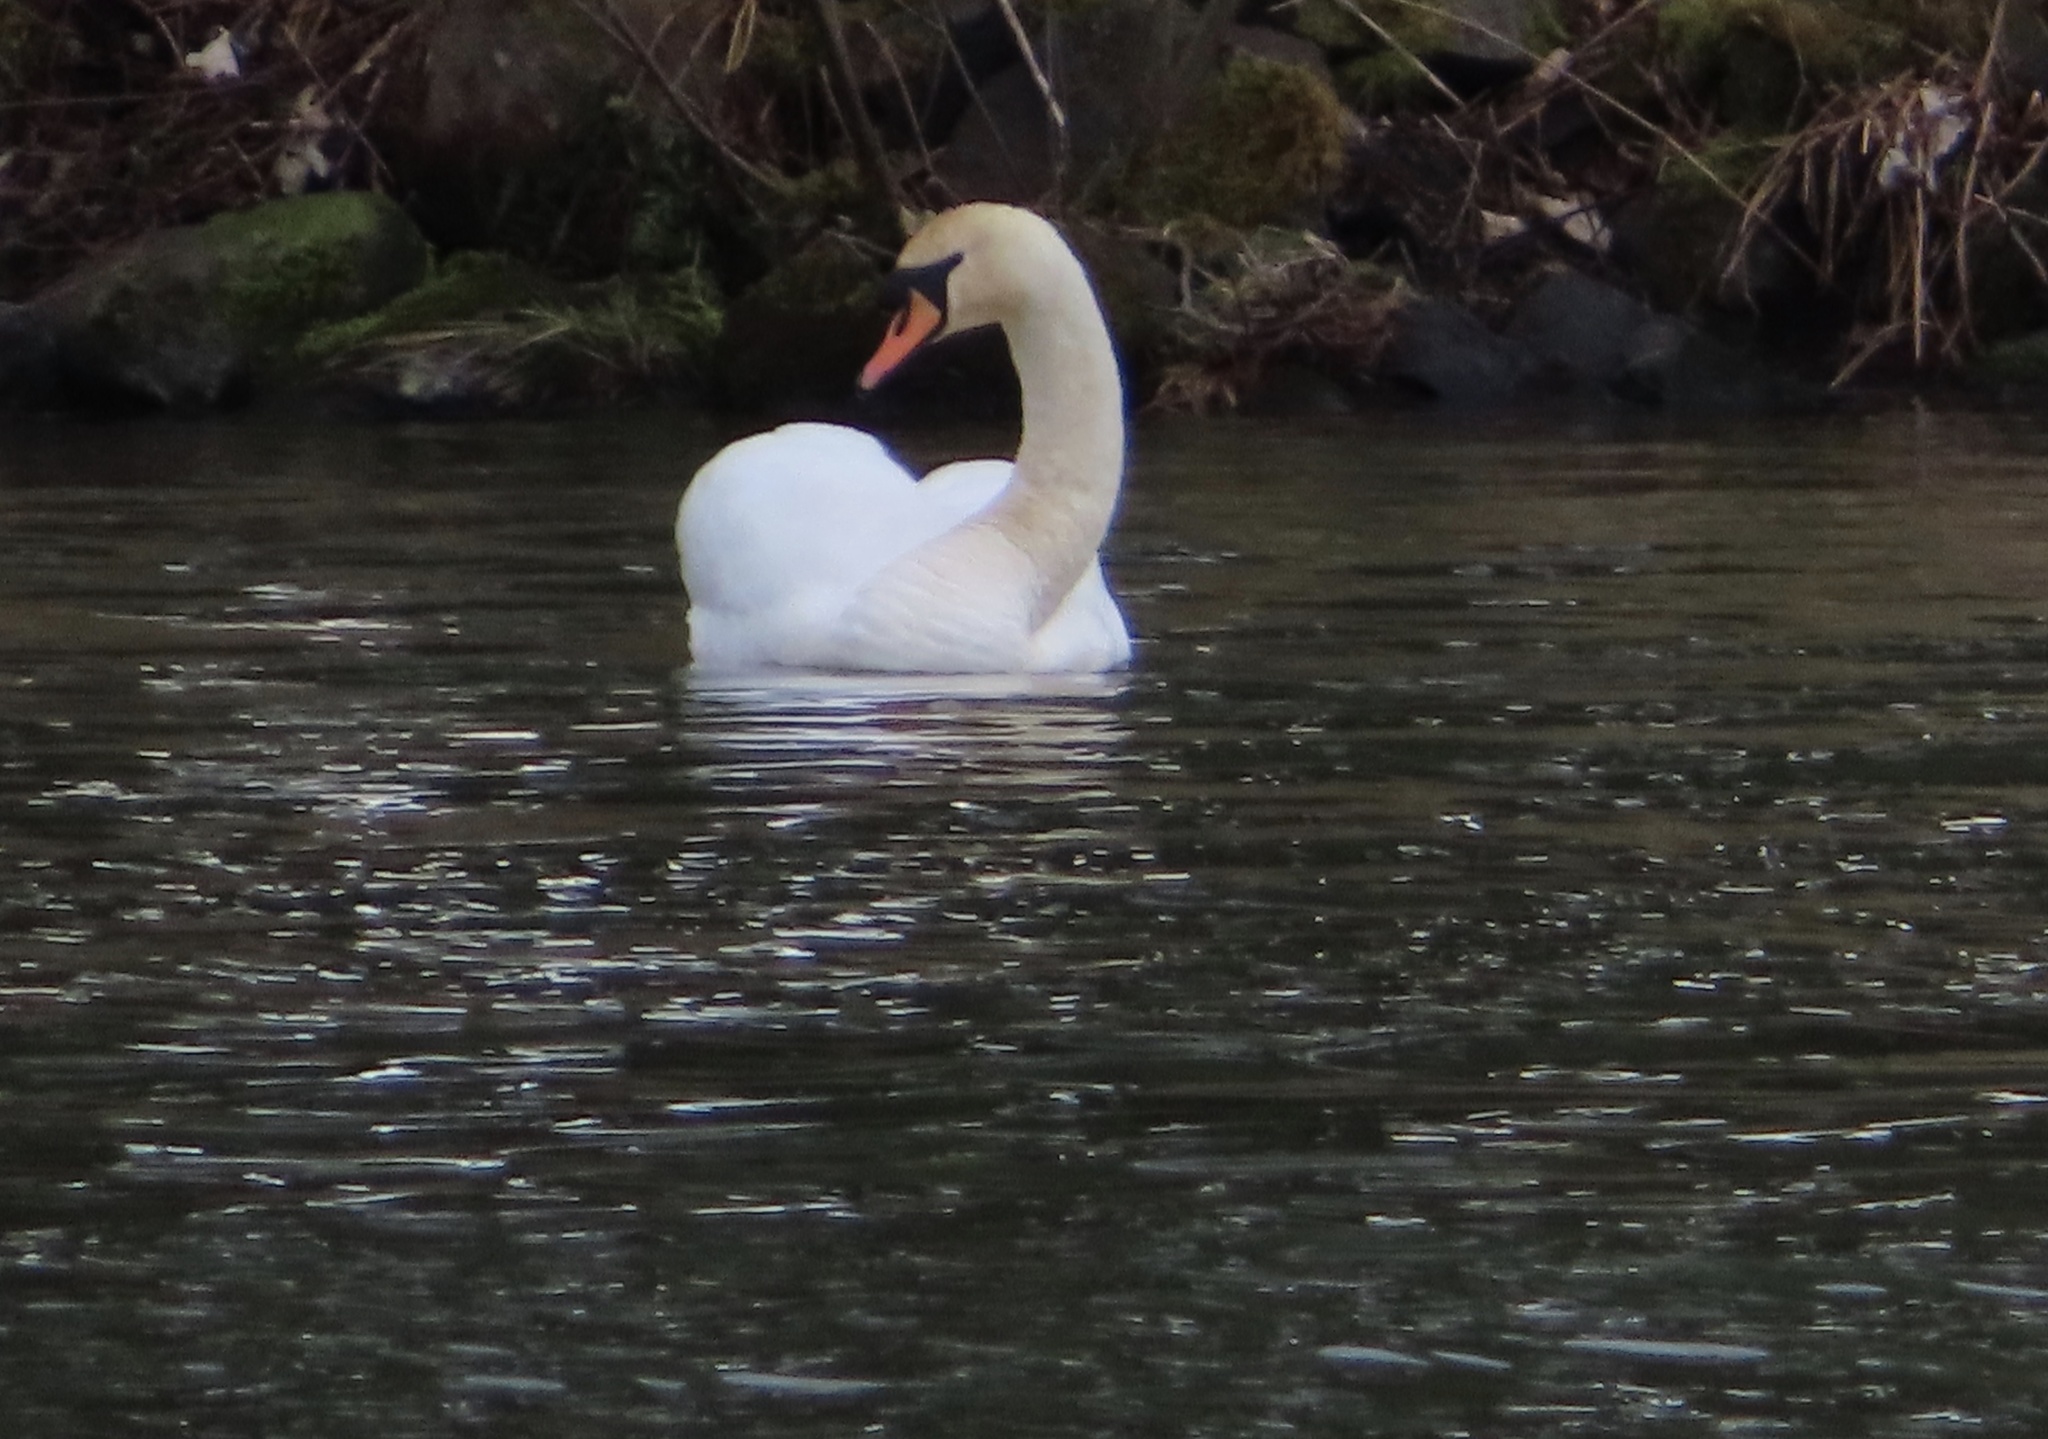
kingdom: Animalia
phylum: Chordata
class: Aves
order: Anseriformes
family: Anatidae
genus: Cygnus
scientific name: Cygnus olor
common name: Mute swan
